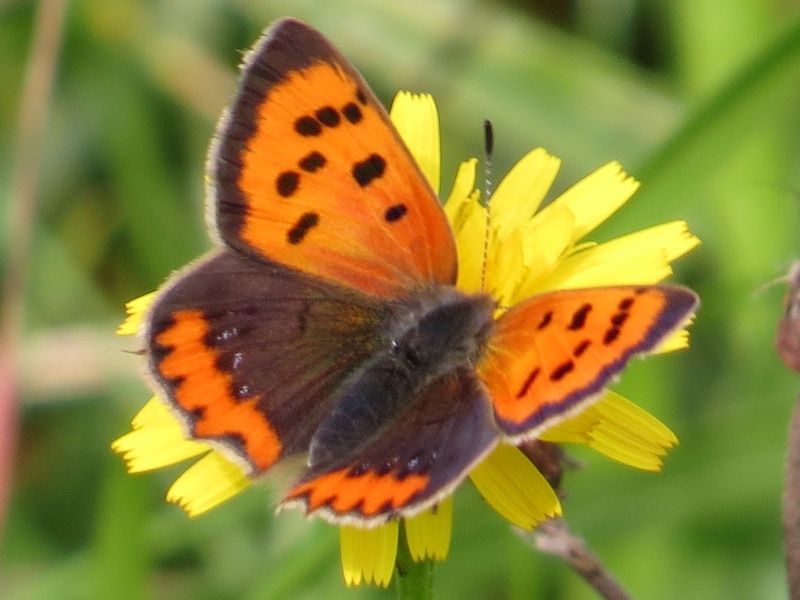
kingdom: Animalia
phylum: Arthropoda
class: Insecta
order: Lepidoptera
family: Lycaenidae
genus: Lycaena
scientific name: Lycaena phlaeas
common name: Small copper
